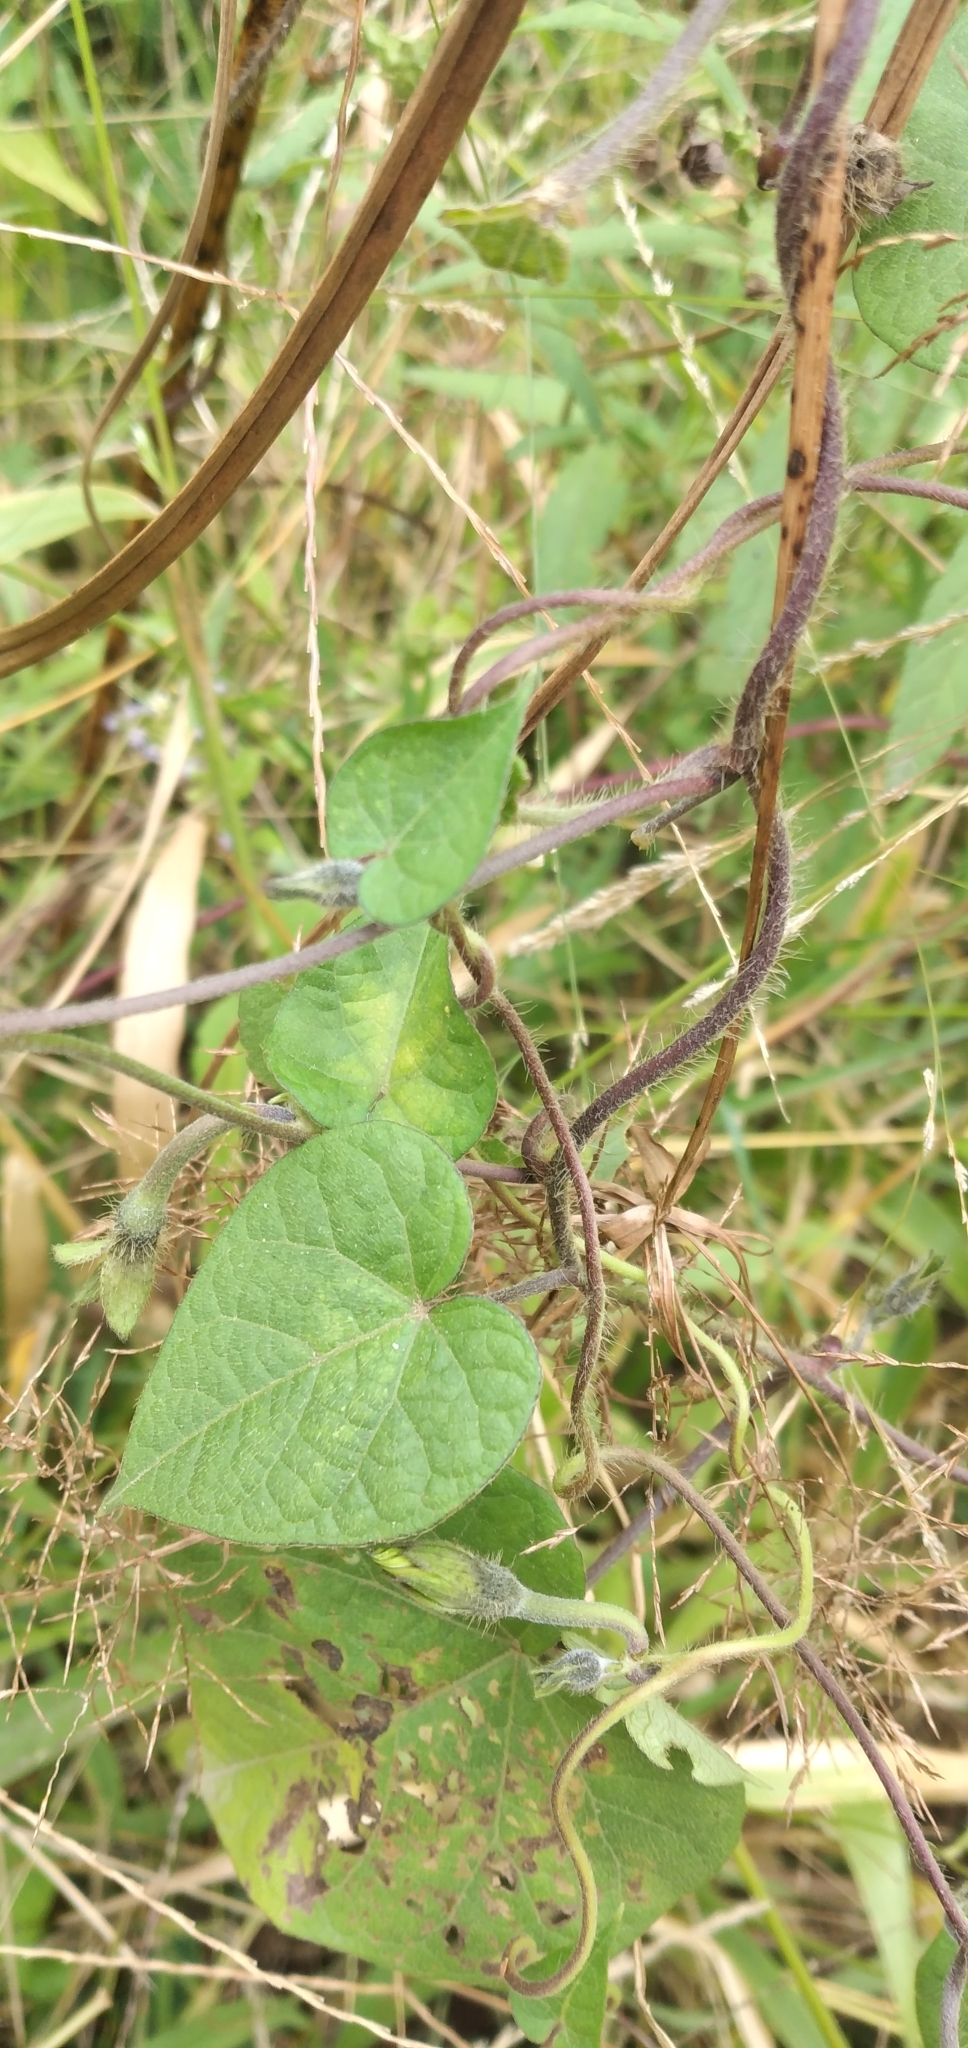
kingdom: Plantae
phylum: Tracheophyta
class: Magnoliopsida
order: Solanales
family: Convolvulaceae
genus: Ipomoea
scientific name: Ipomoea purpurea
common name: Common morning-glory
